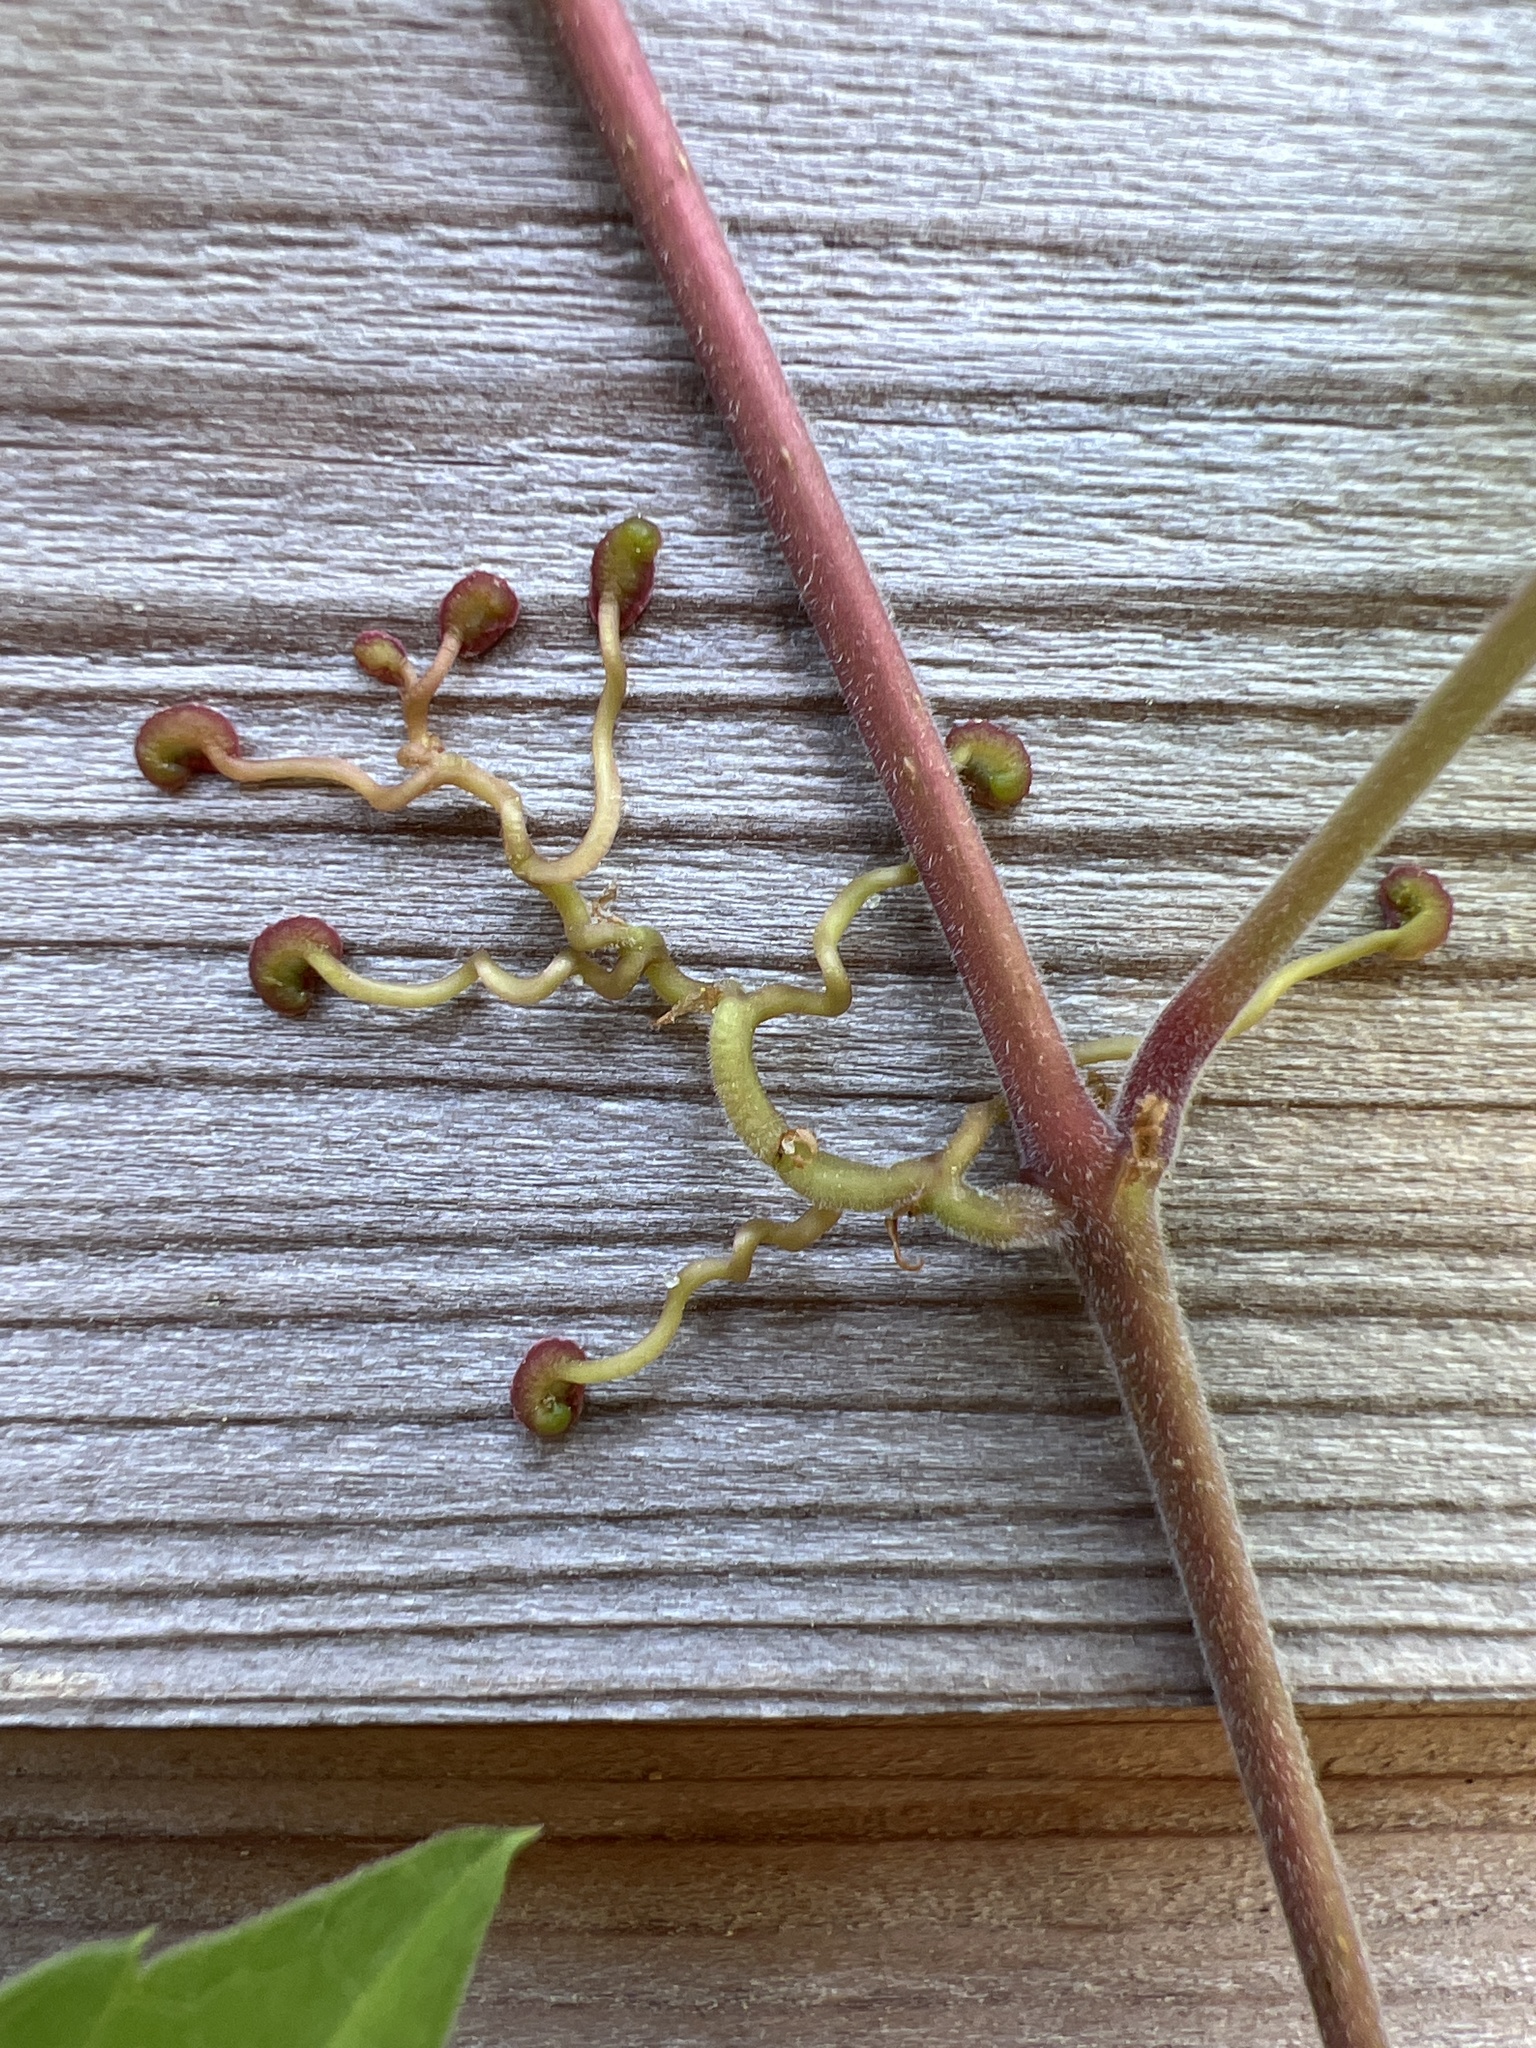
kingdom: Plantae
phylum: Tracheophyta
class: Magnoliopsida
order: Vitales
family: Vitaceae
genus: Parthenocissus
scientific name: Parthenocissus quinquefolia
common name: Virginia-creeper
